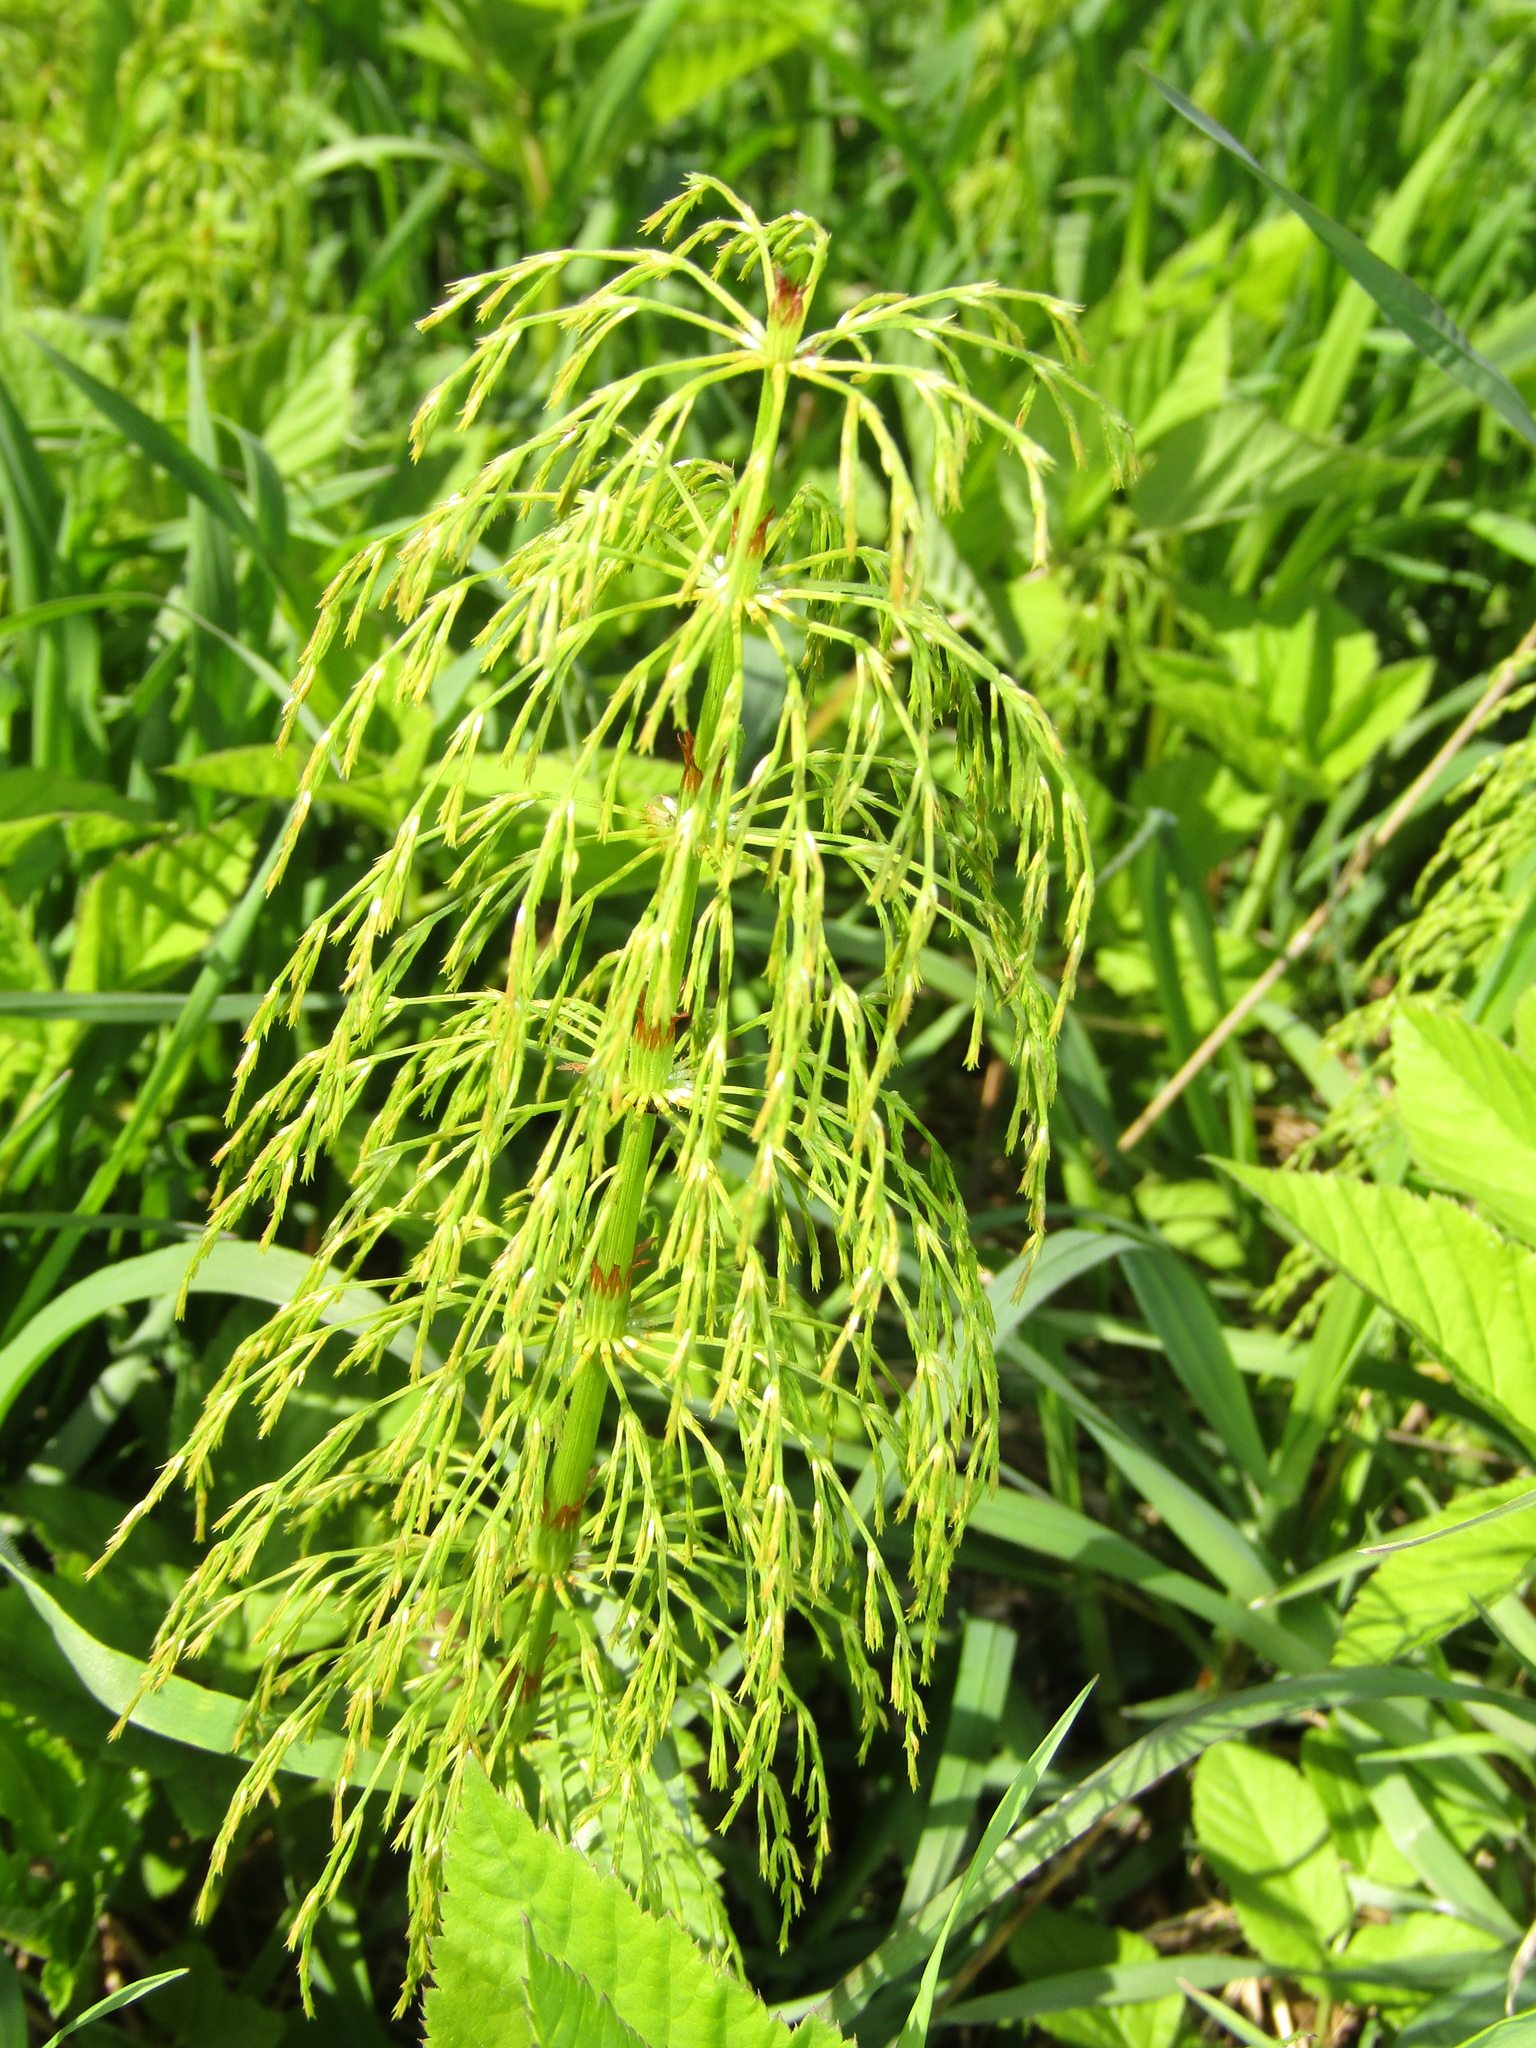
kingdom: Plantae
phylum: Tracheophyta
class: Polypodiopsida
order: Equisetales
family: Equisetaceae
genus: Equisetum
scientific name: Equisetum sylvaticum
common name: Wood horsetail
